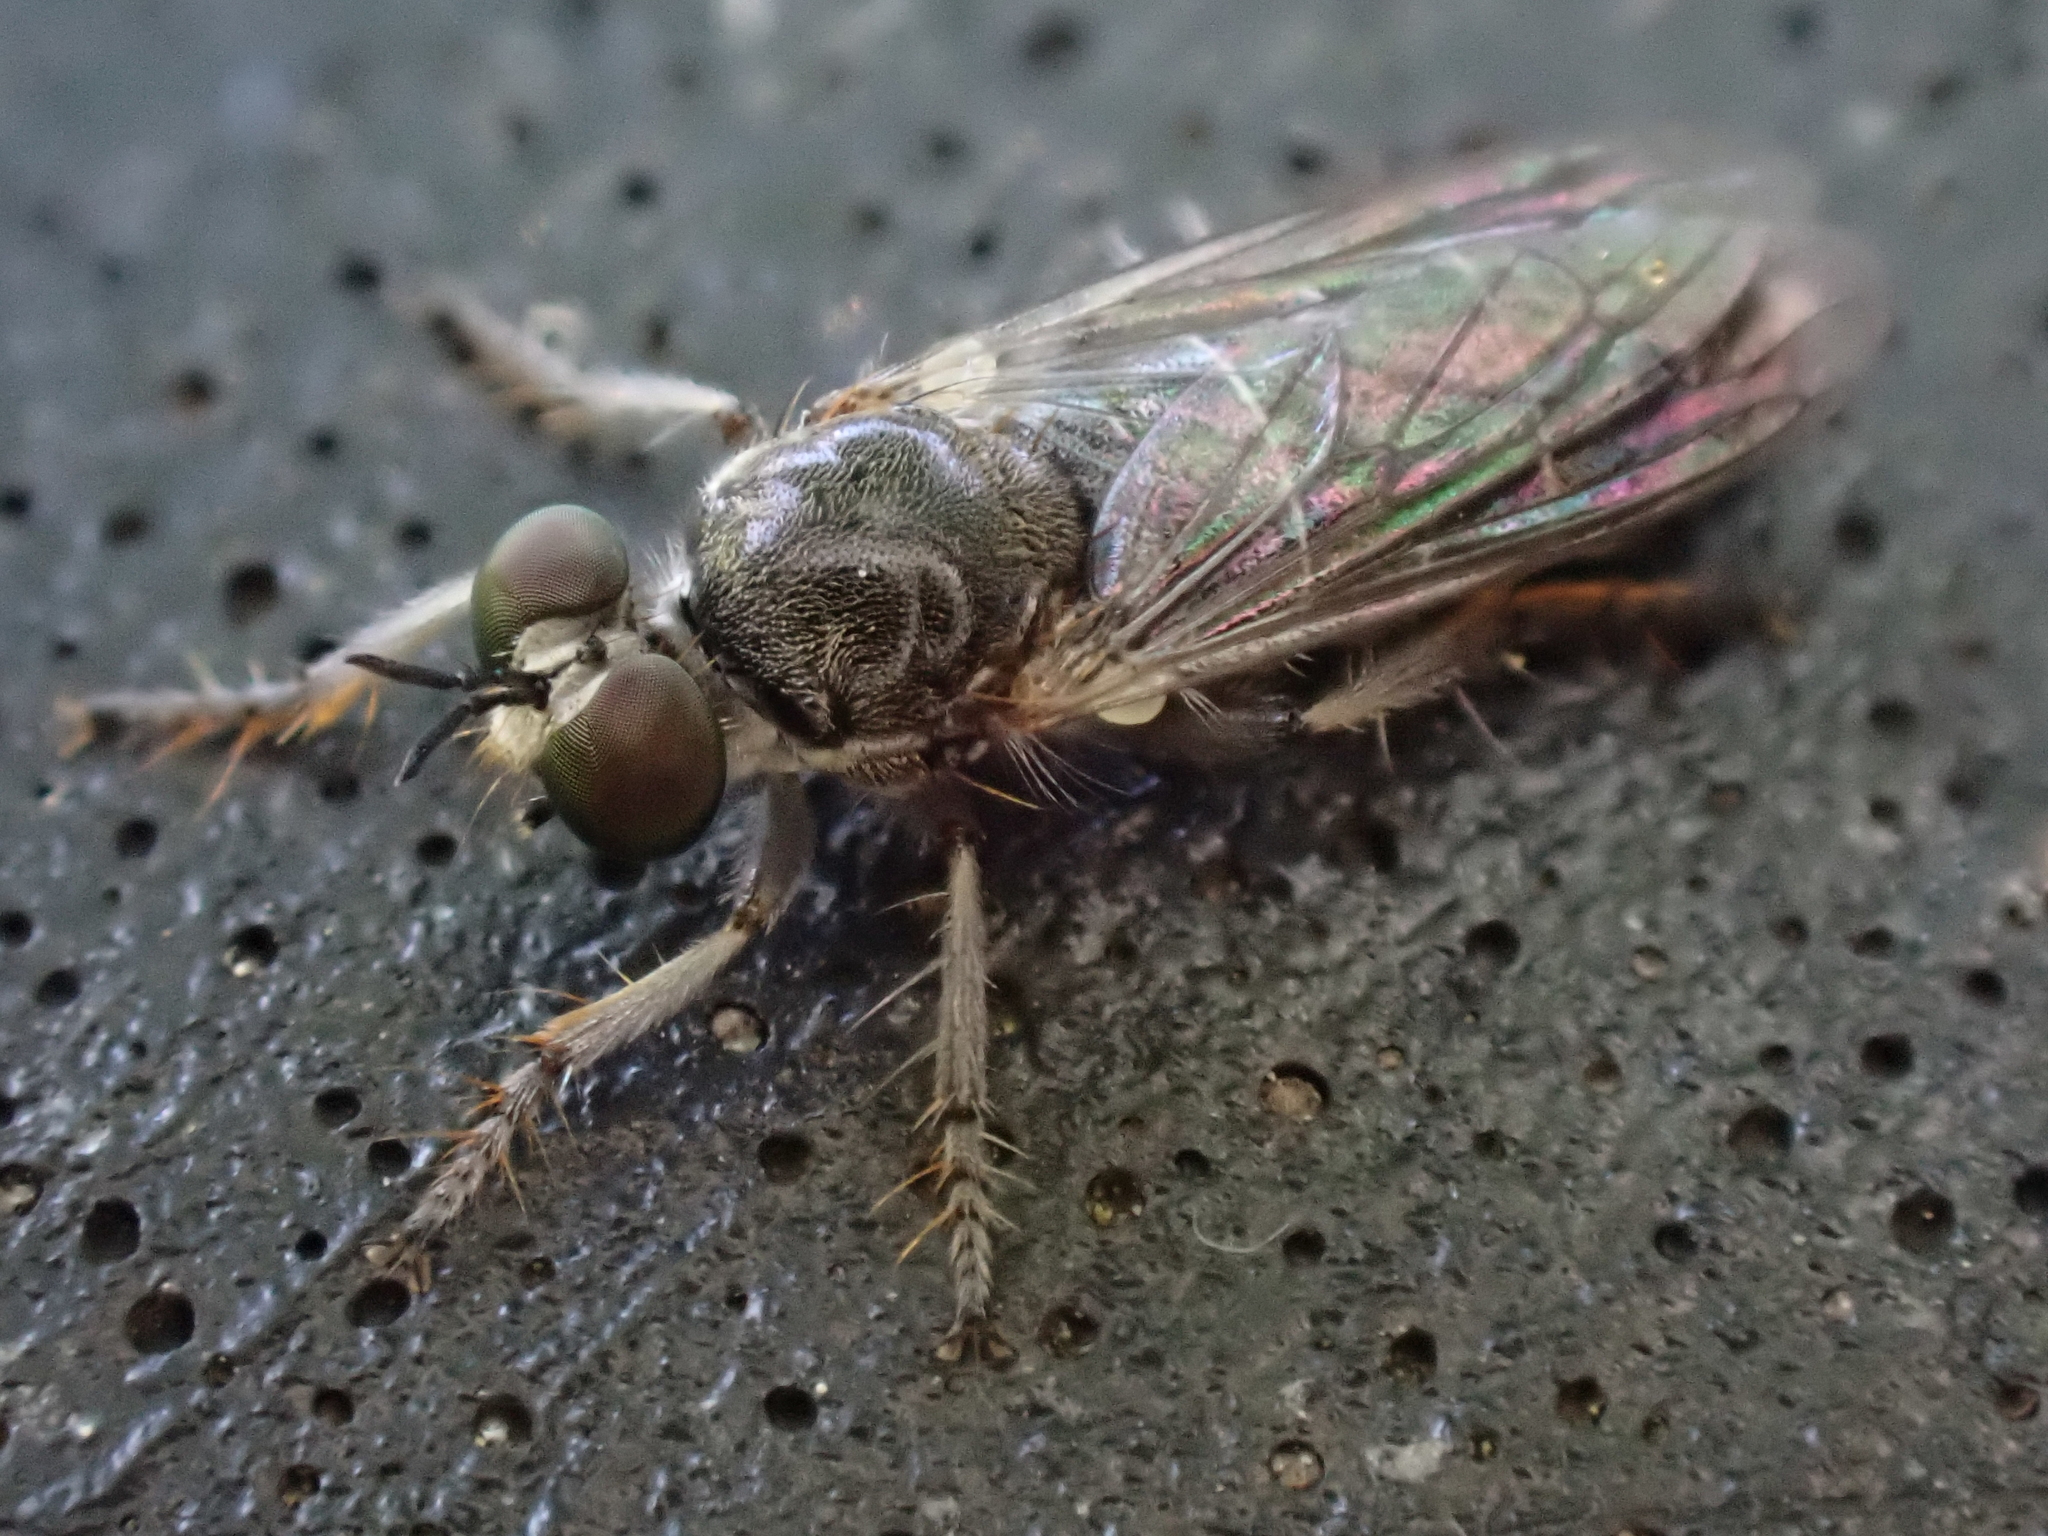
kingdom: Animalia
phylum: Arthropoda
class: Insecta
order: Diptera
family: Asilidae
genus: Atomosia
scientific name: Atomosia puella
